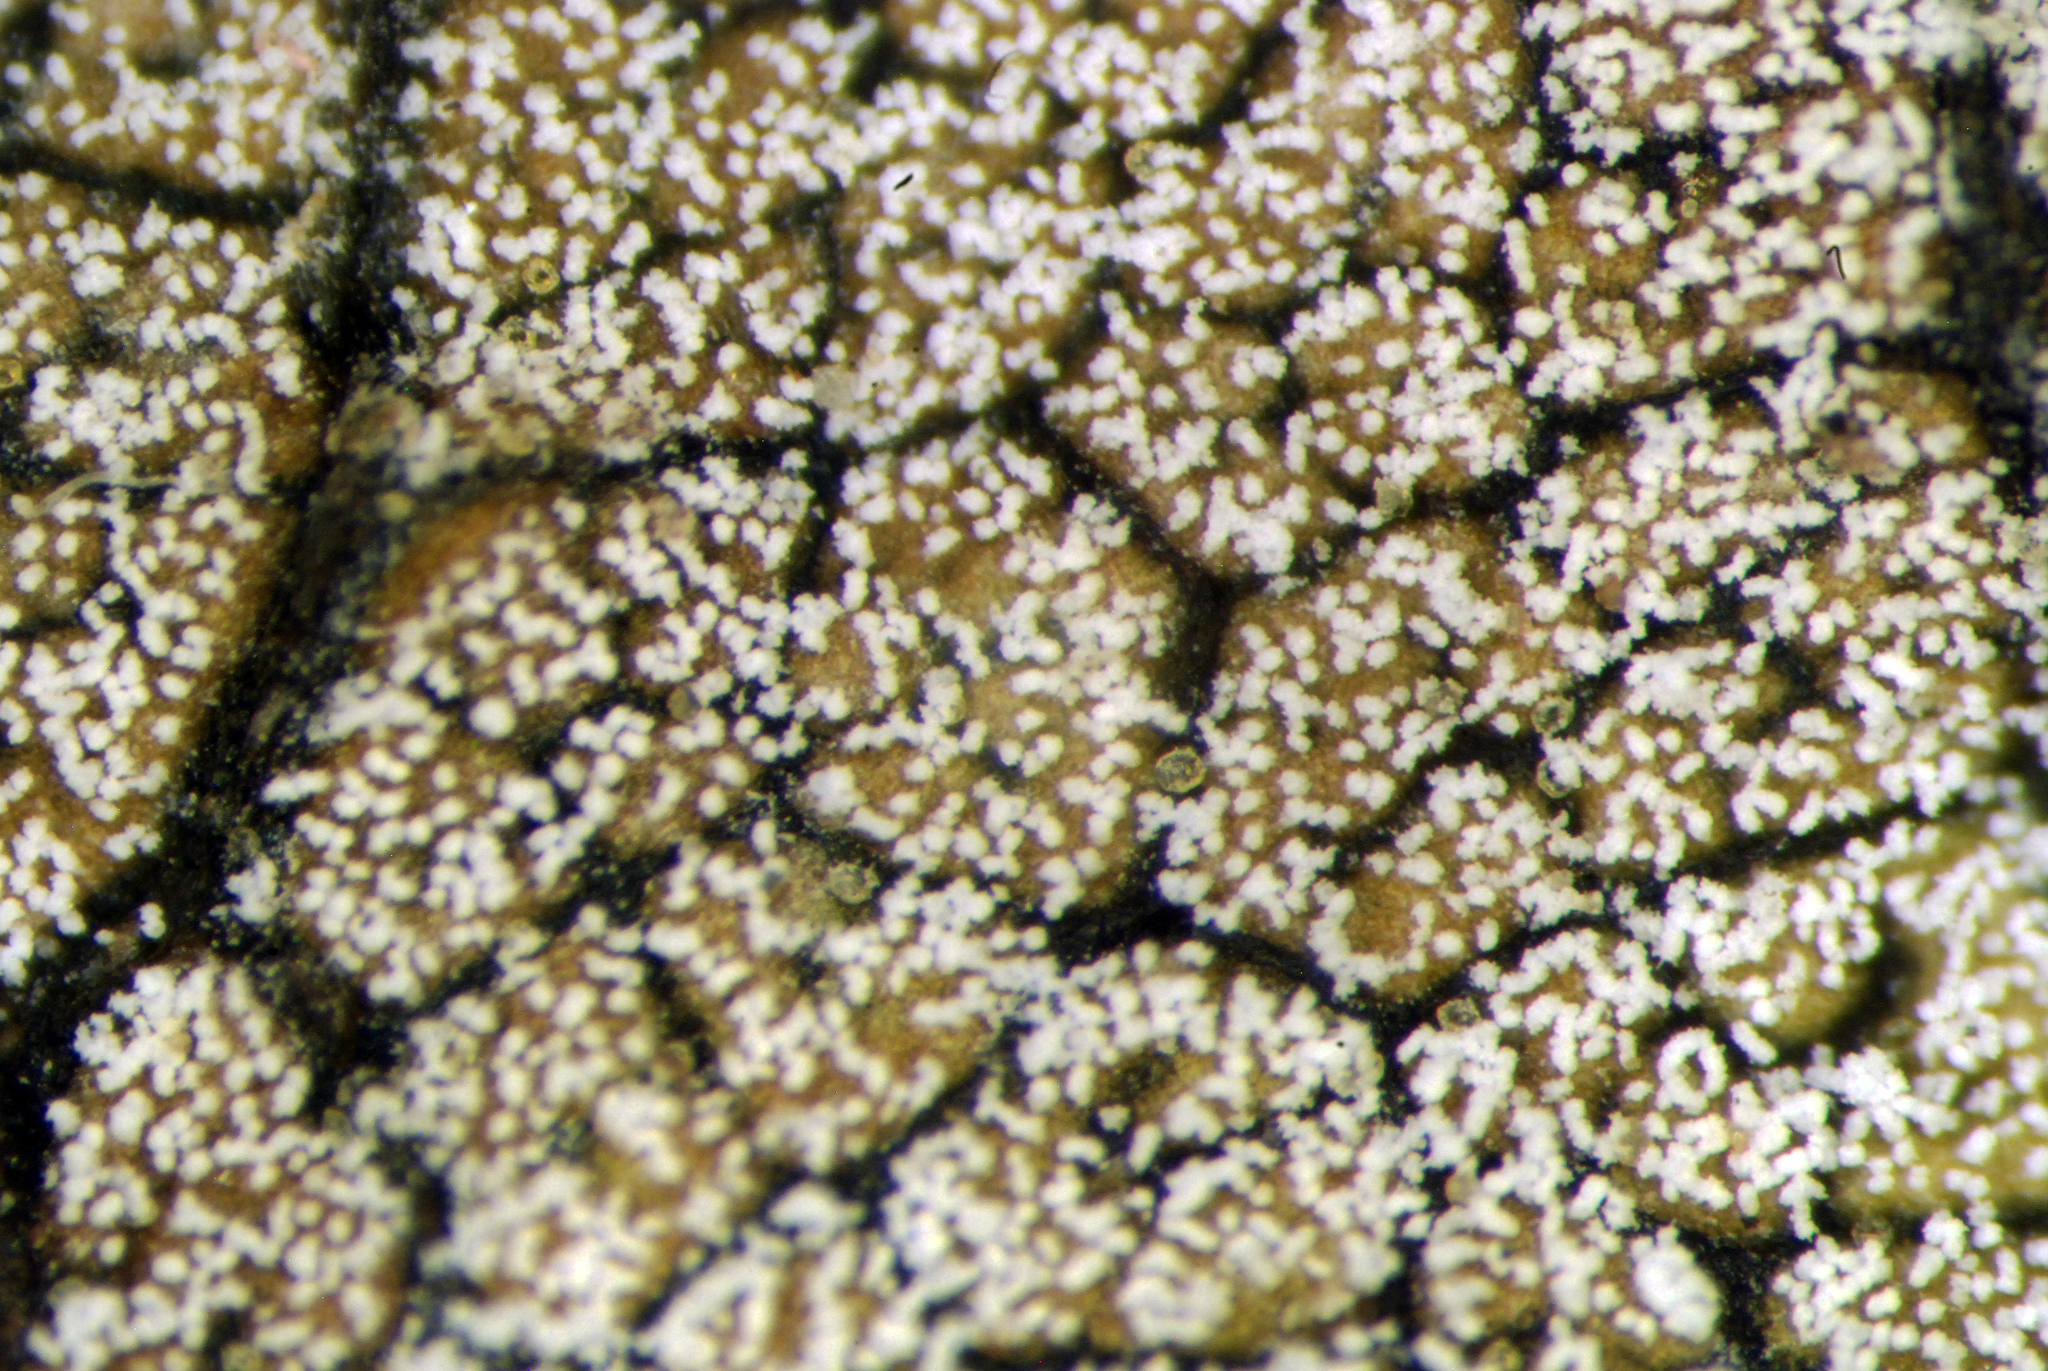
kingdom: Fungi
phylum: Basidiomycota
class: Exobasidiomycetes
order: Microstromatales
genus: Pseudomicrostroma
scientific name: Pseudomicrostroma juglandis
